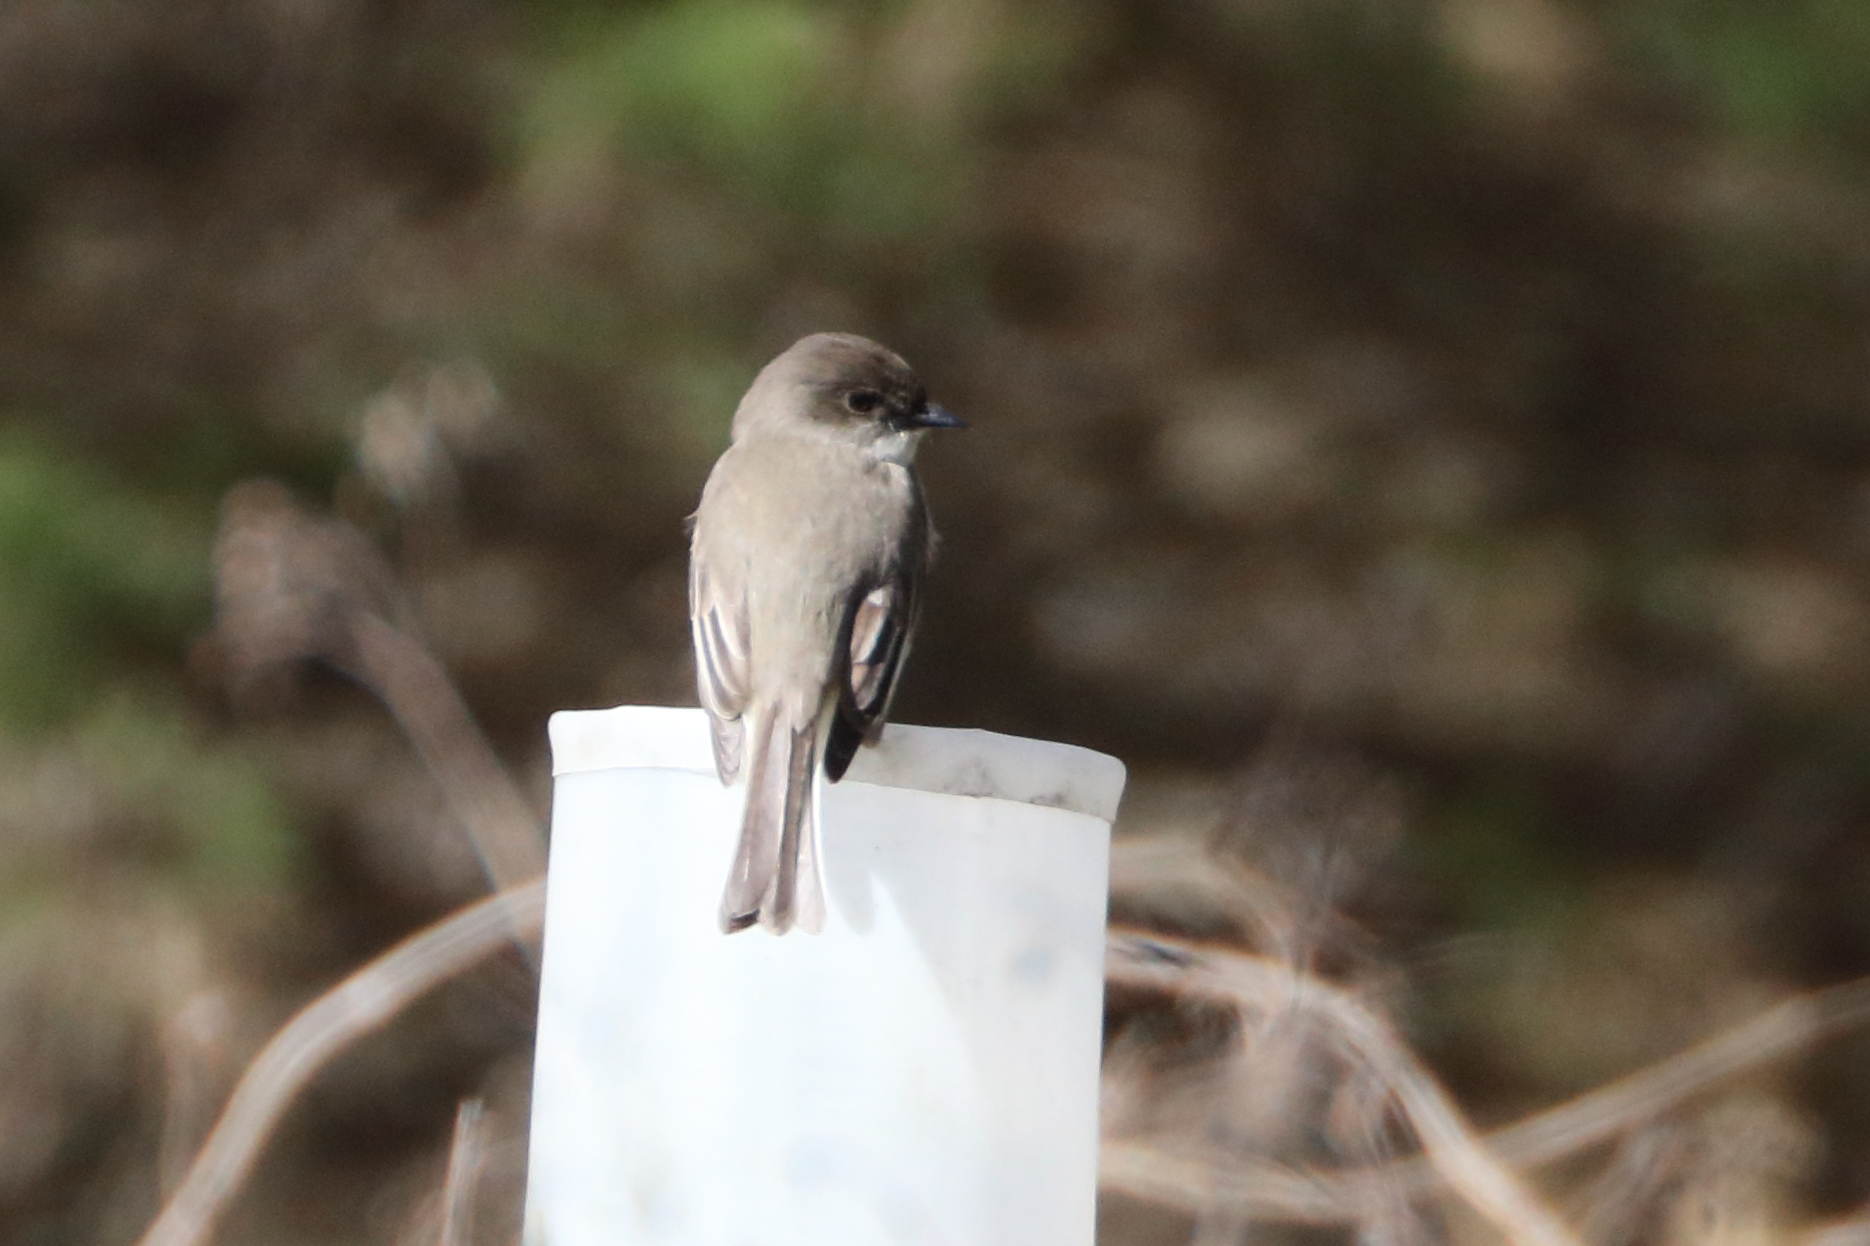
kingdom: Animalia
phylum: Chordata
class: Aves
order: Passeriformes
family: Tyrannidae
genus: Sayornis
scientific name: Sayornis phoebe
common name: Eastern phoebe
